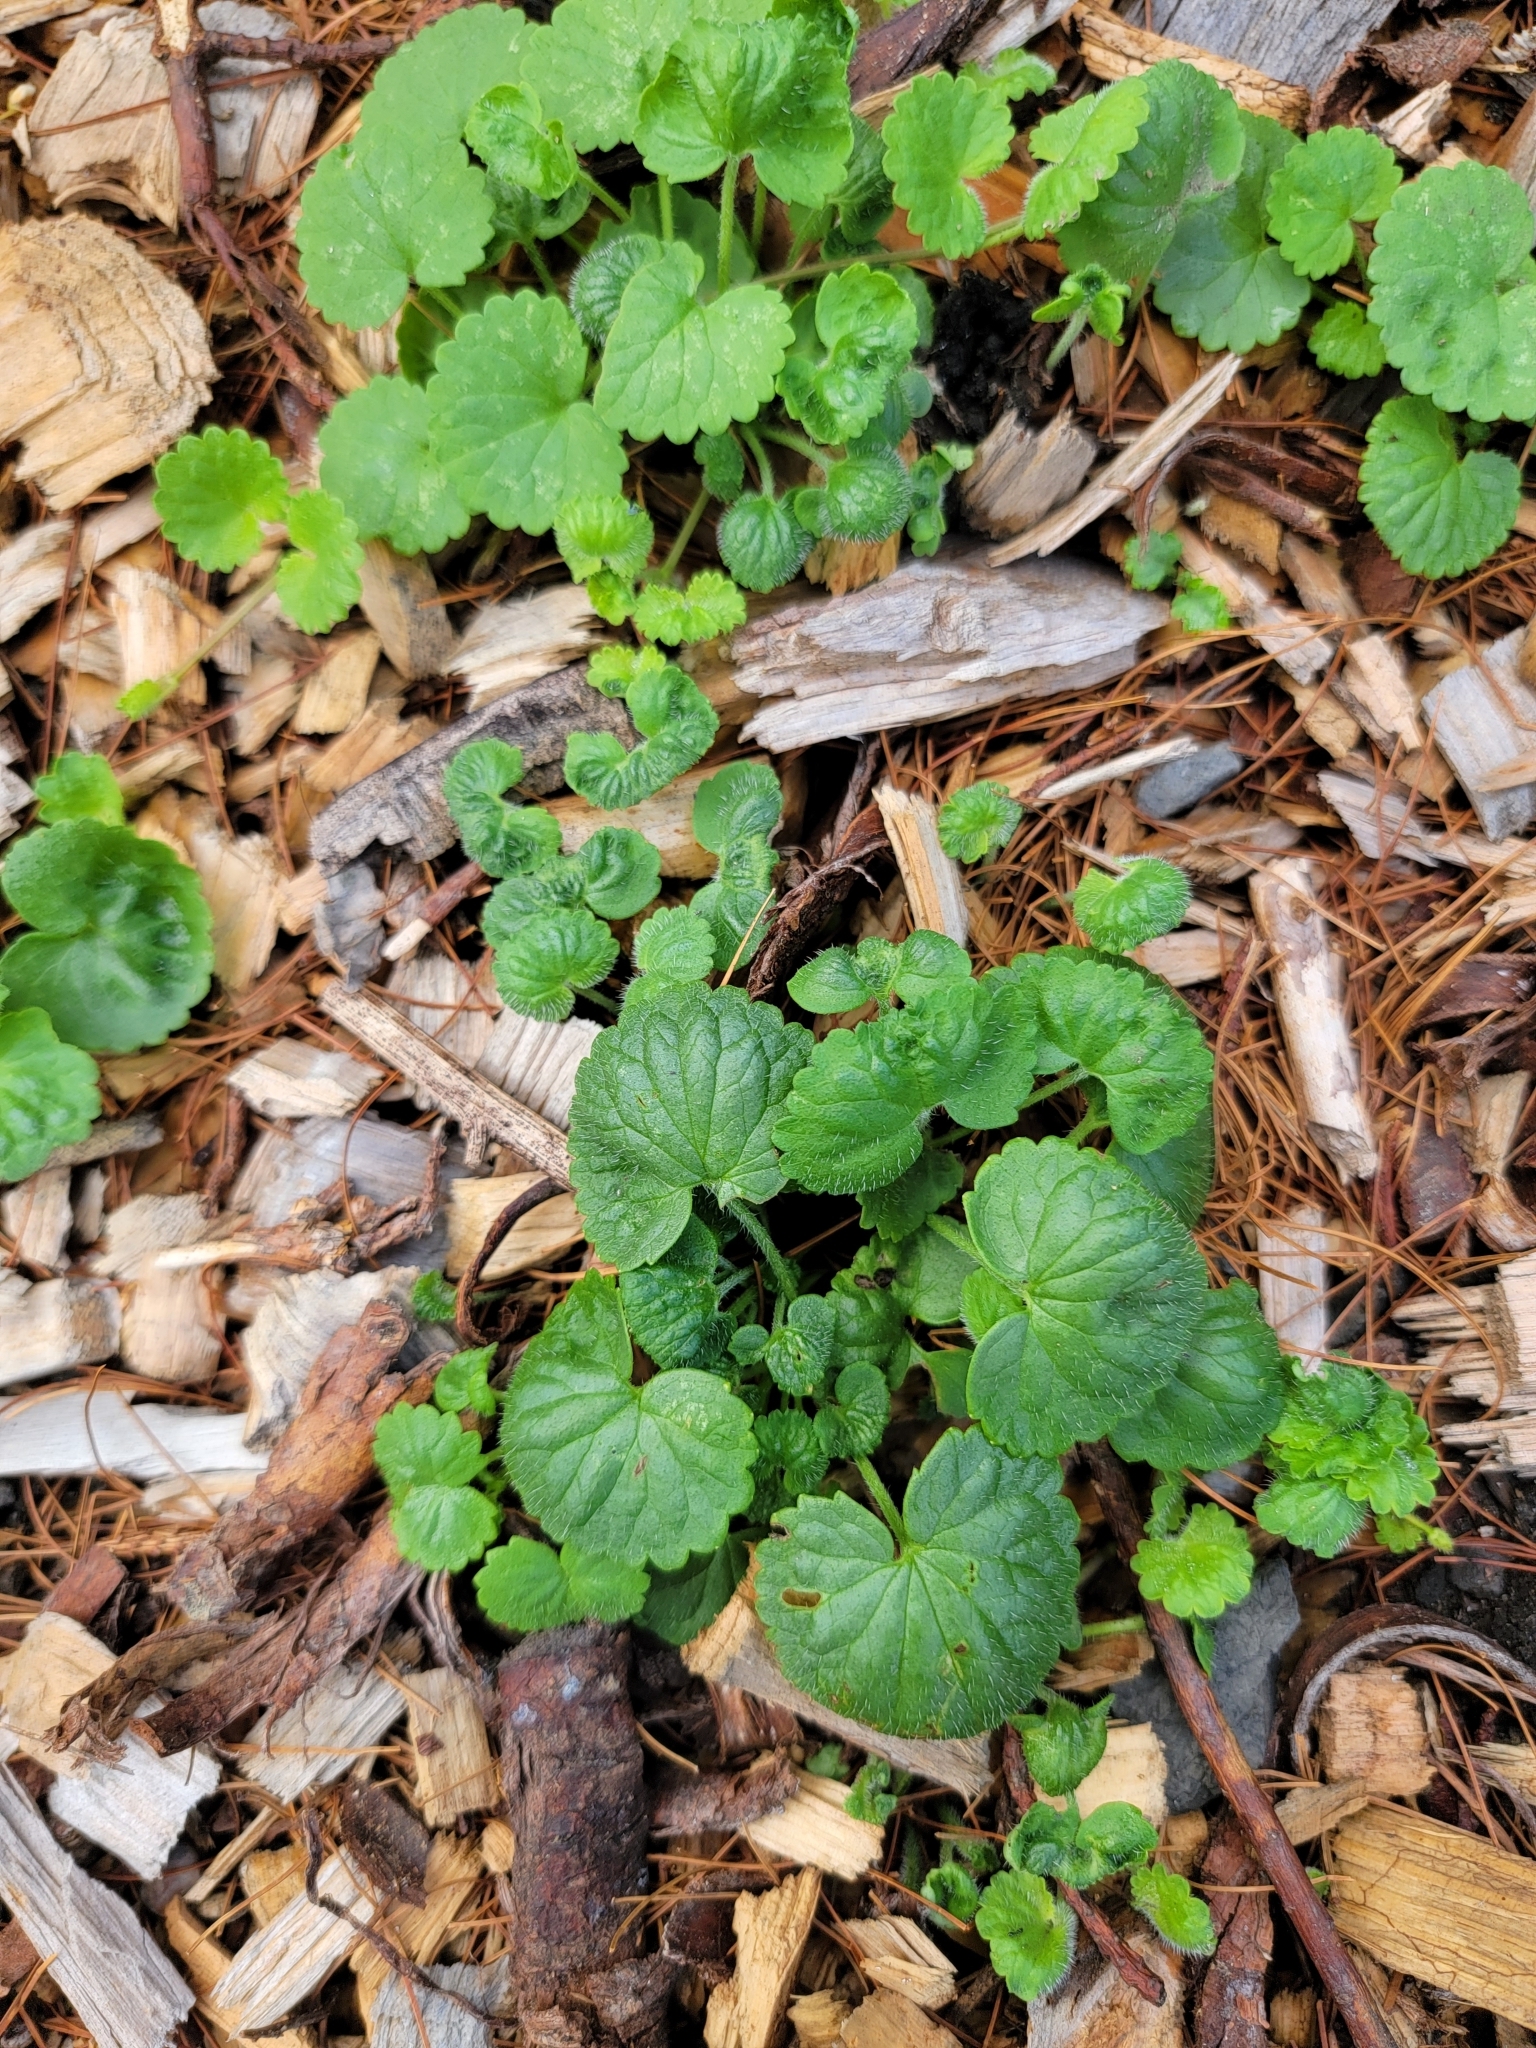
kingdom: Plantae
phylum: Tracheophyta
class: Magnoliopsida
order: Lamiales
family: Lamiaceae
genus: Glechoma
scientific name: Glechoma hederacea
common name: Ground ivy
